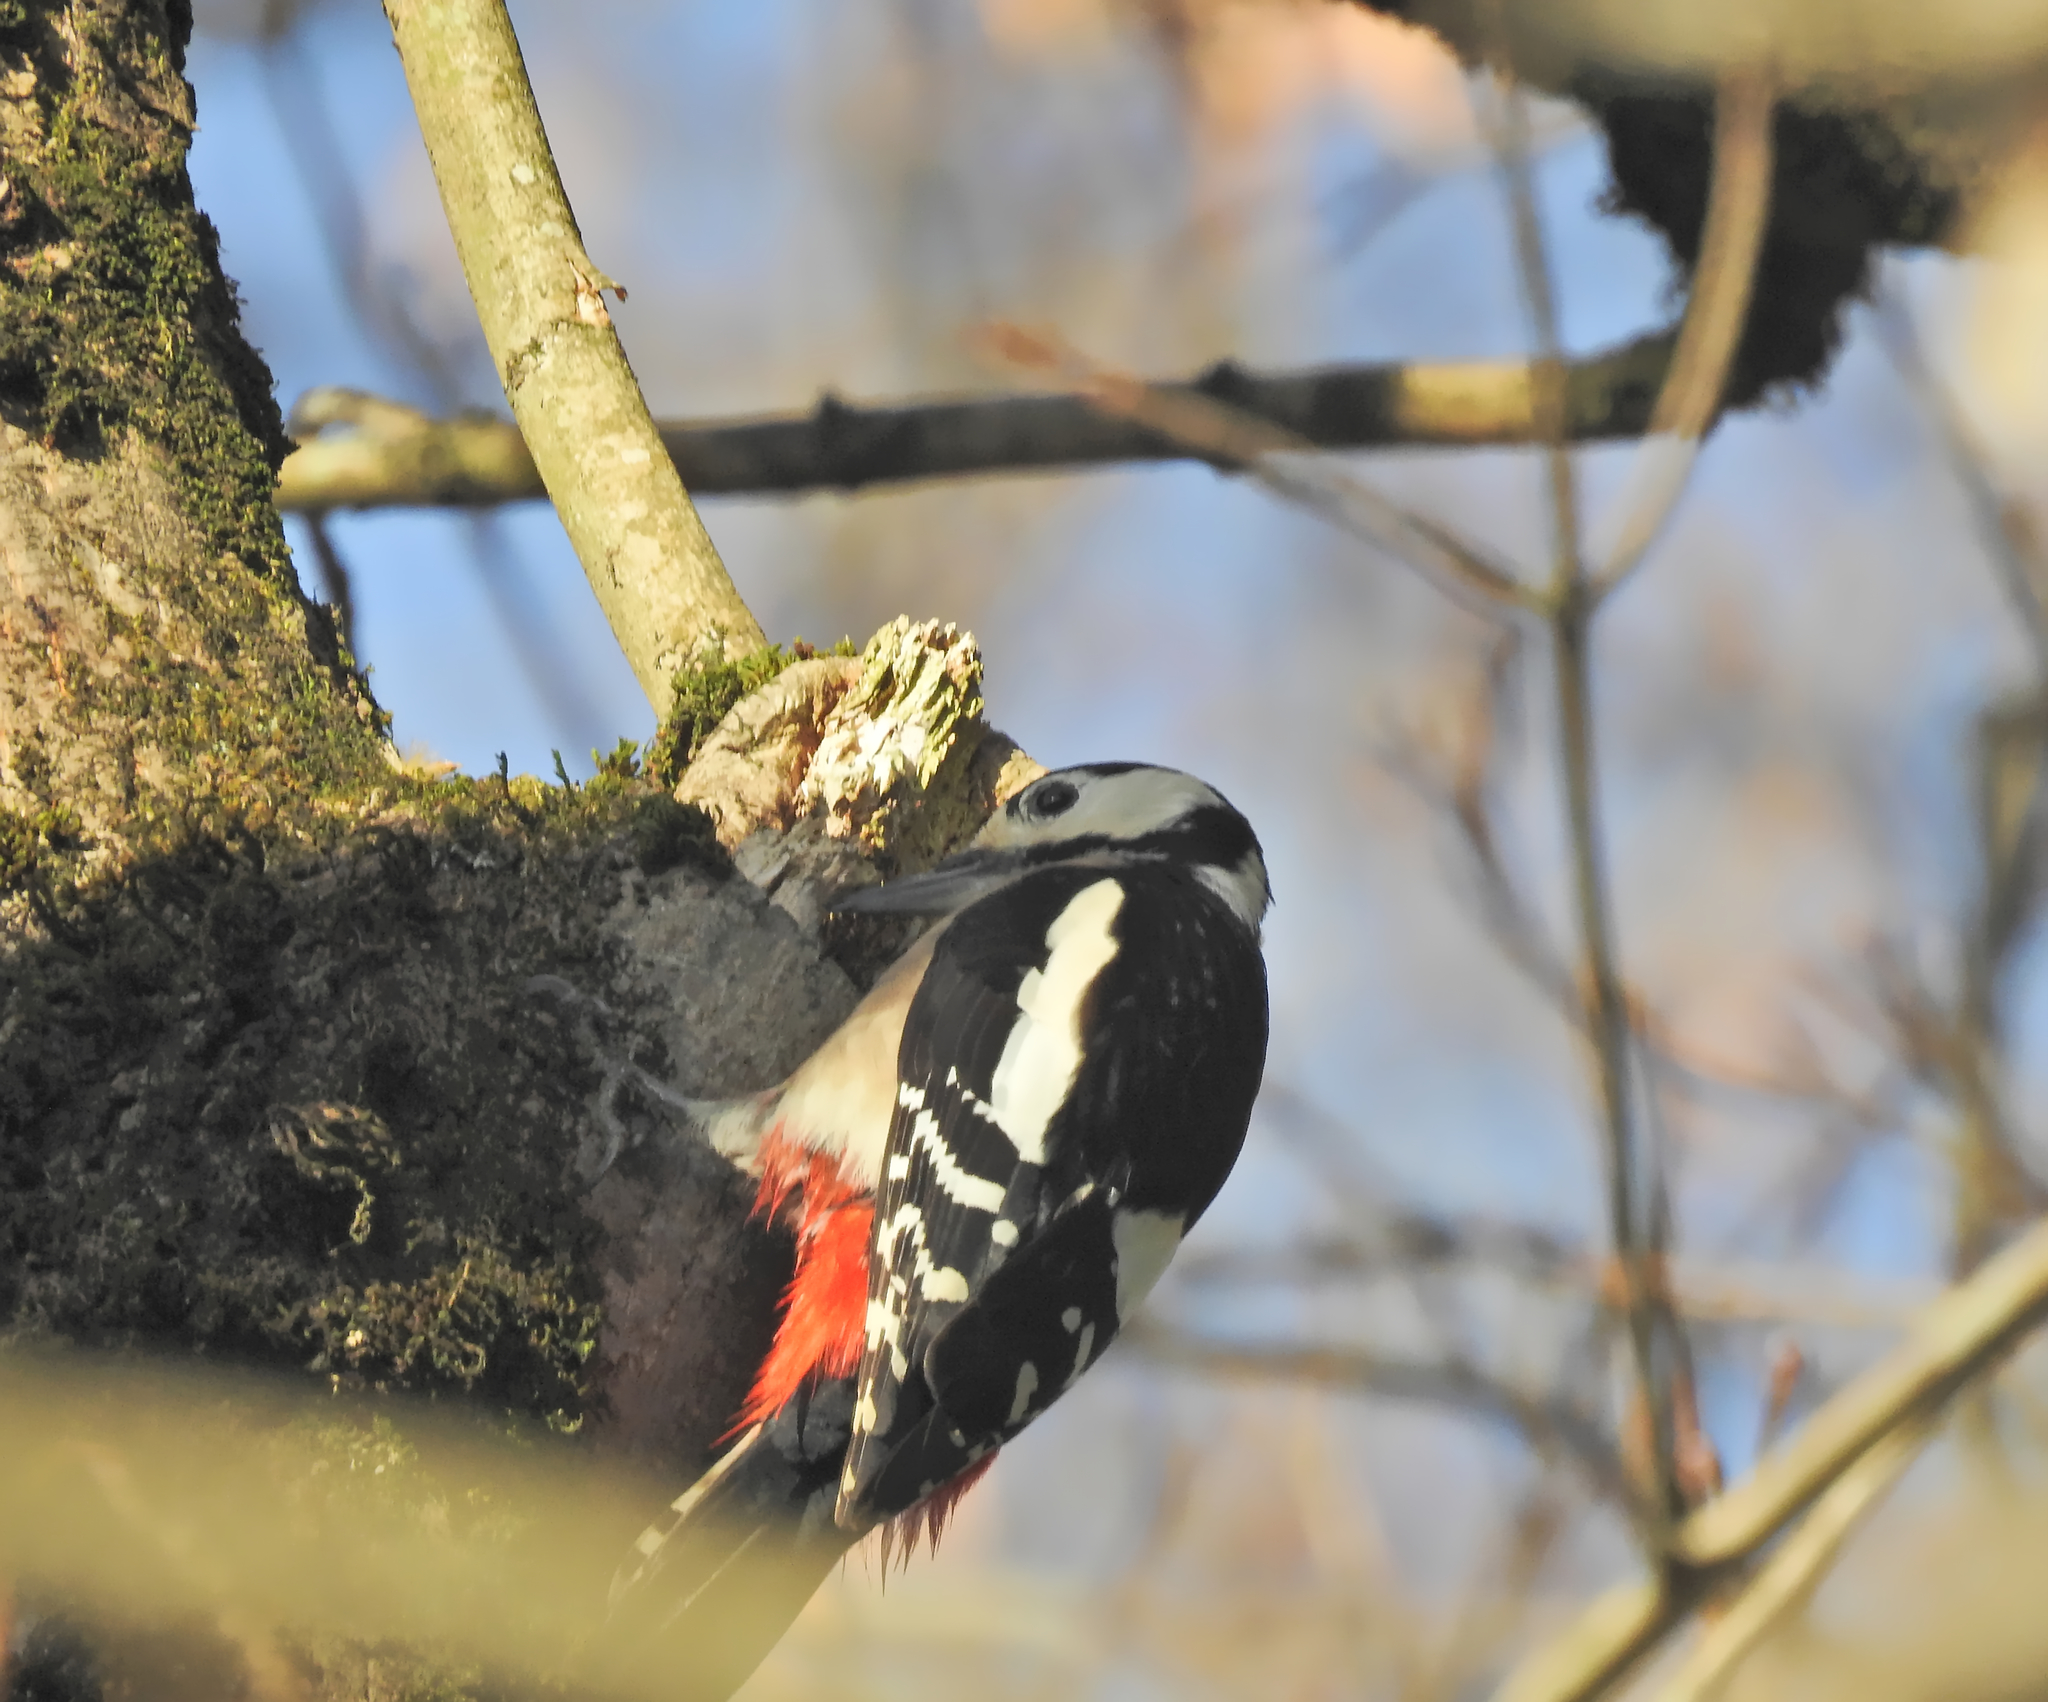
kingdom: Animalia
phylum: Chordata
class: Aves
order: Piciformes
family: Picidae
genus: Dendrocopos
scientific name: Dendrocopos major
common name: Great spotted woodpecker
